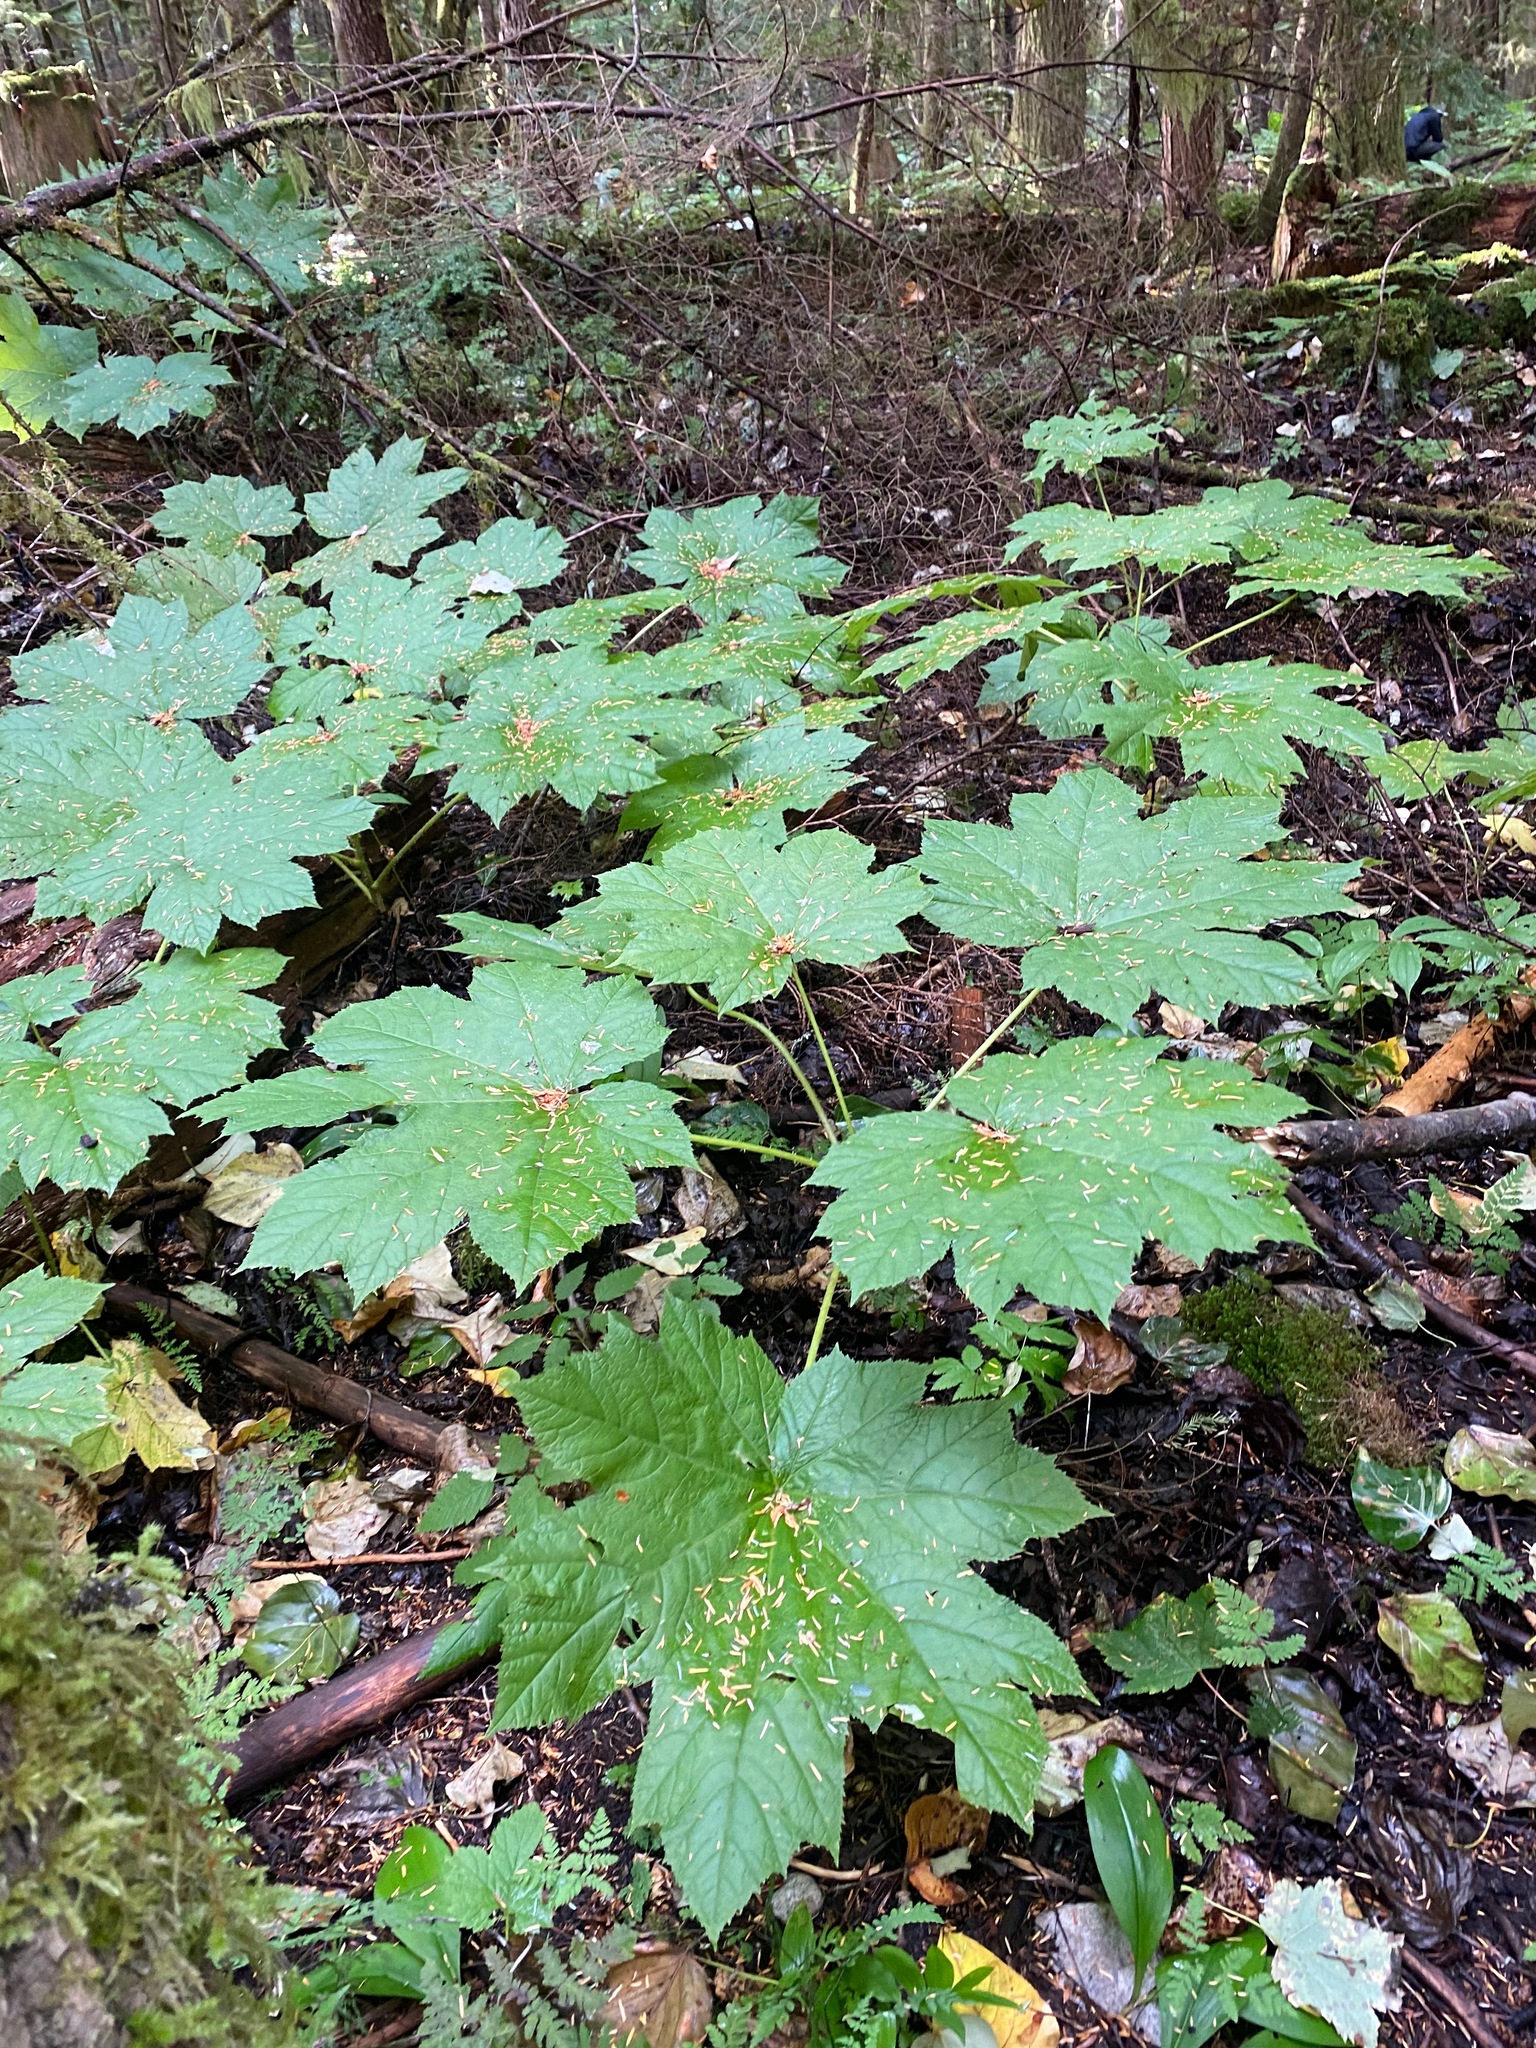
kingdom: Plantae
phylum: Tracheophyta
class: Magnoliopsida
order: Apiales
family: Araliaceae
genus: Oplopanax
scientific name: Oplopanax horridus
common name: Devil's walking-stick
